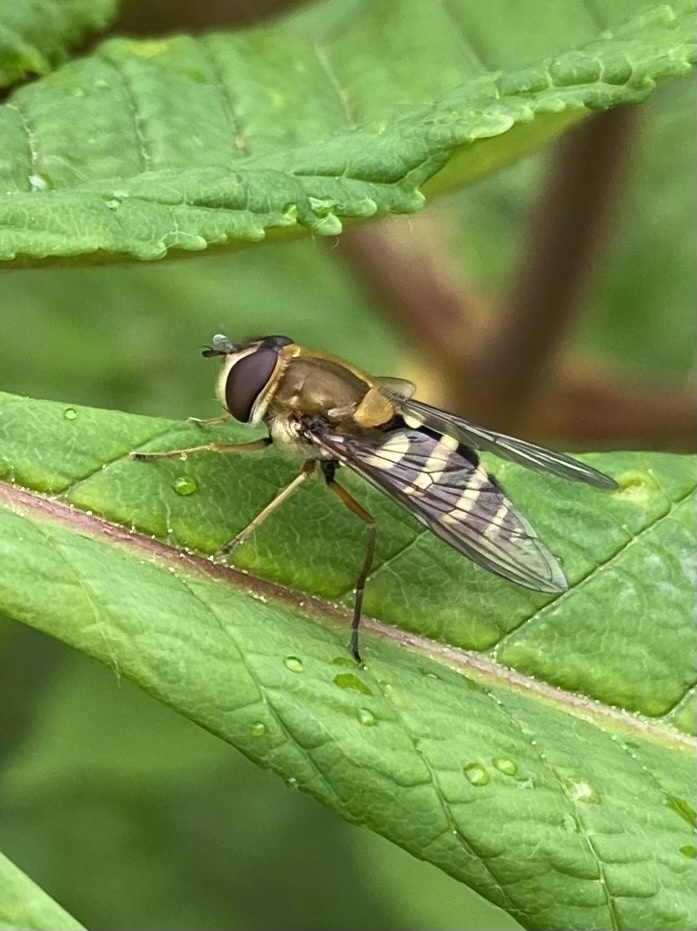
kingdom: Animalia
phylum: Arthropoda
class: Insecta
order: Diptera
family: Syrphidae
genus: Syrphus
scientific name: Syrphus ribesii
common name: Common flower fly
